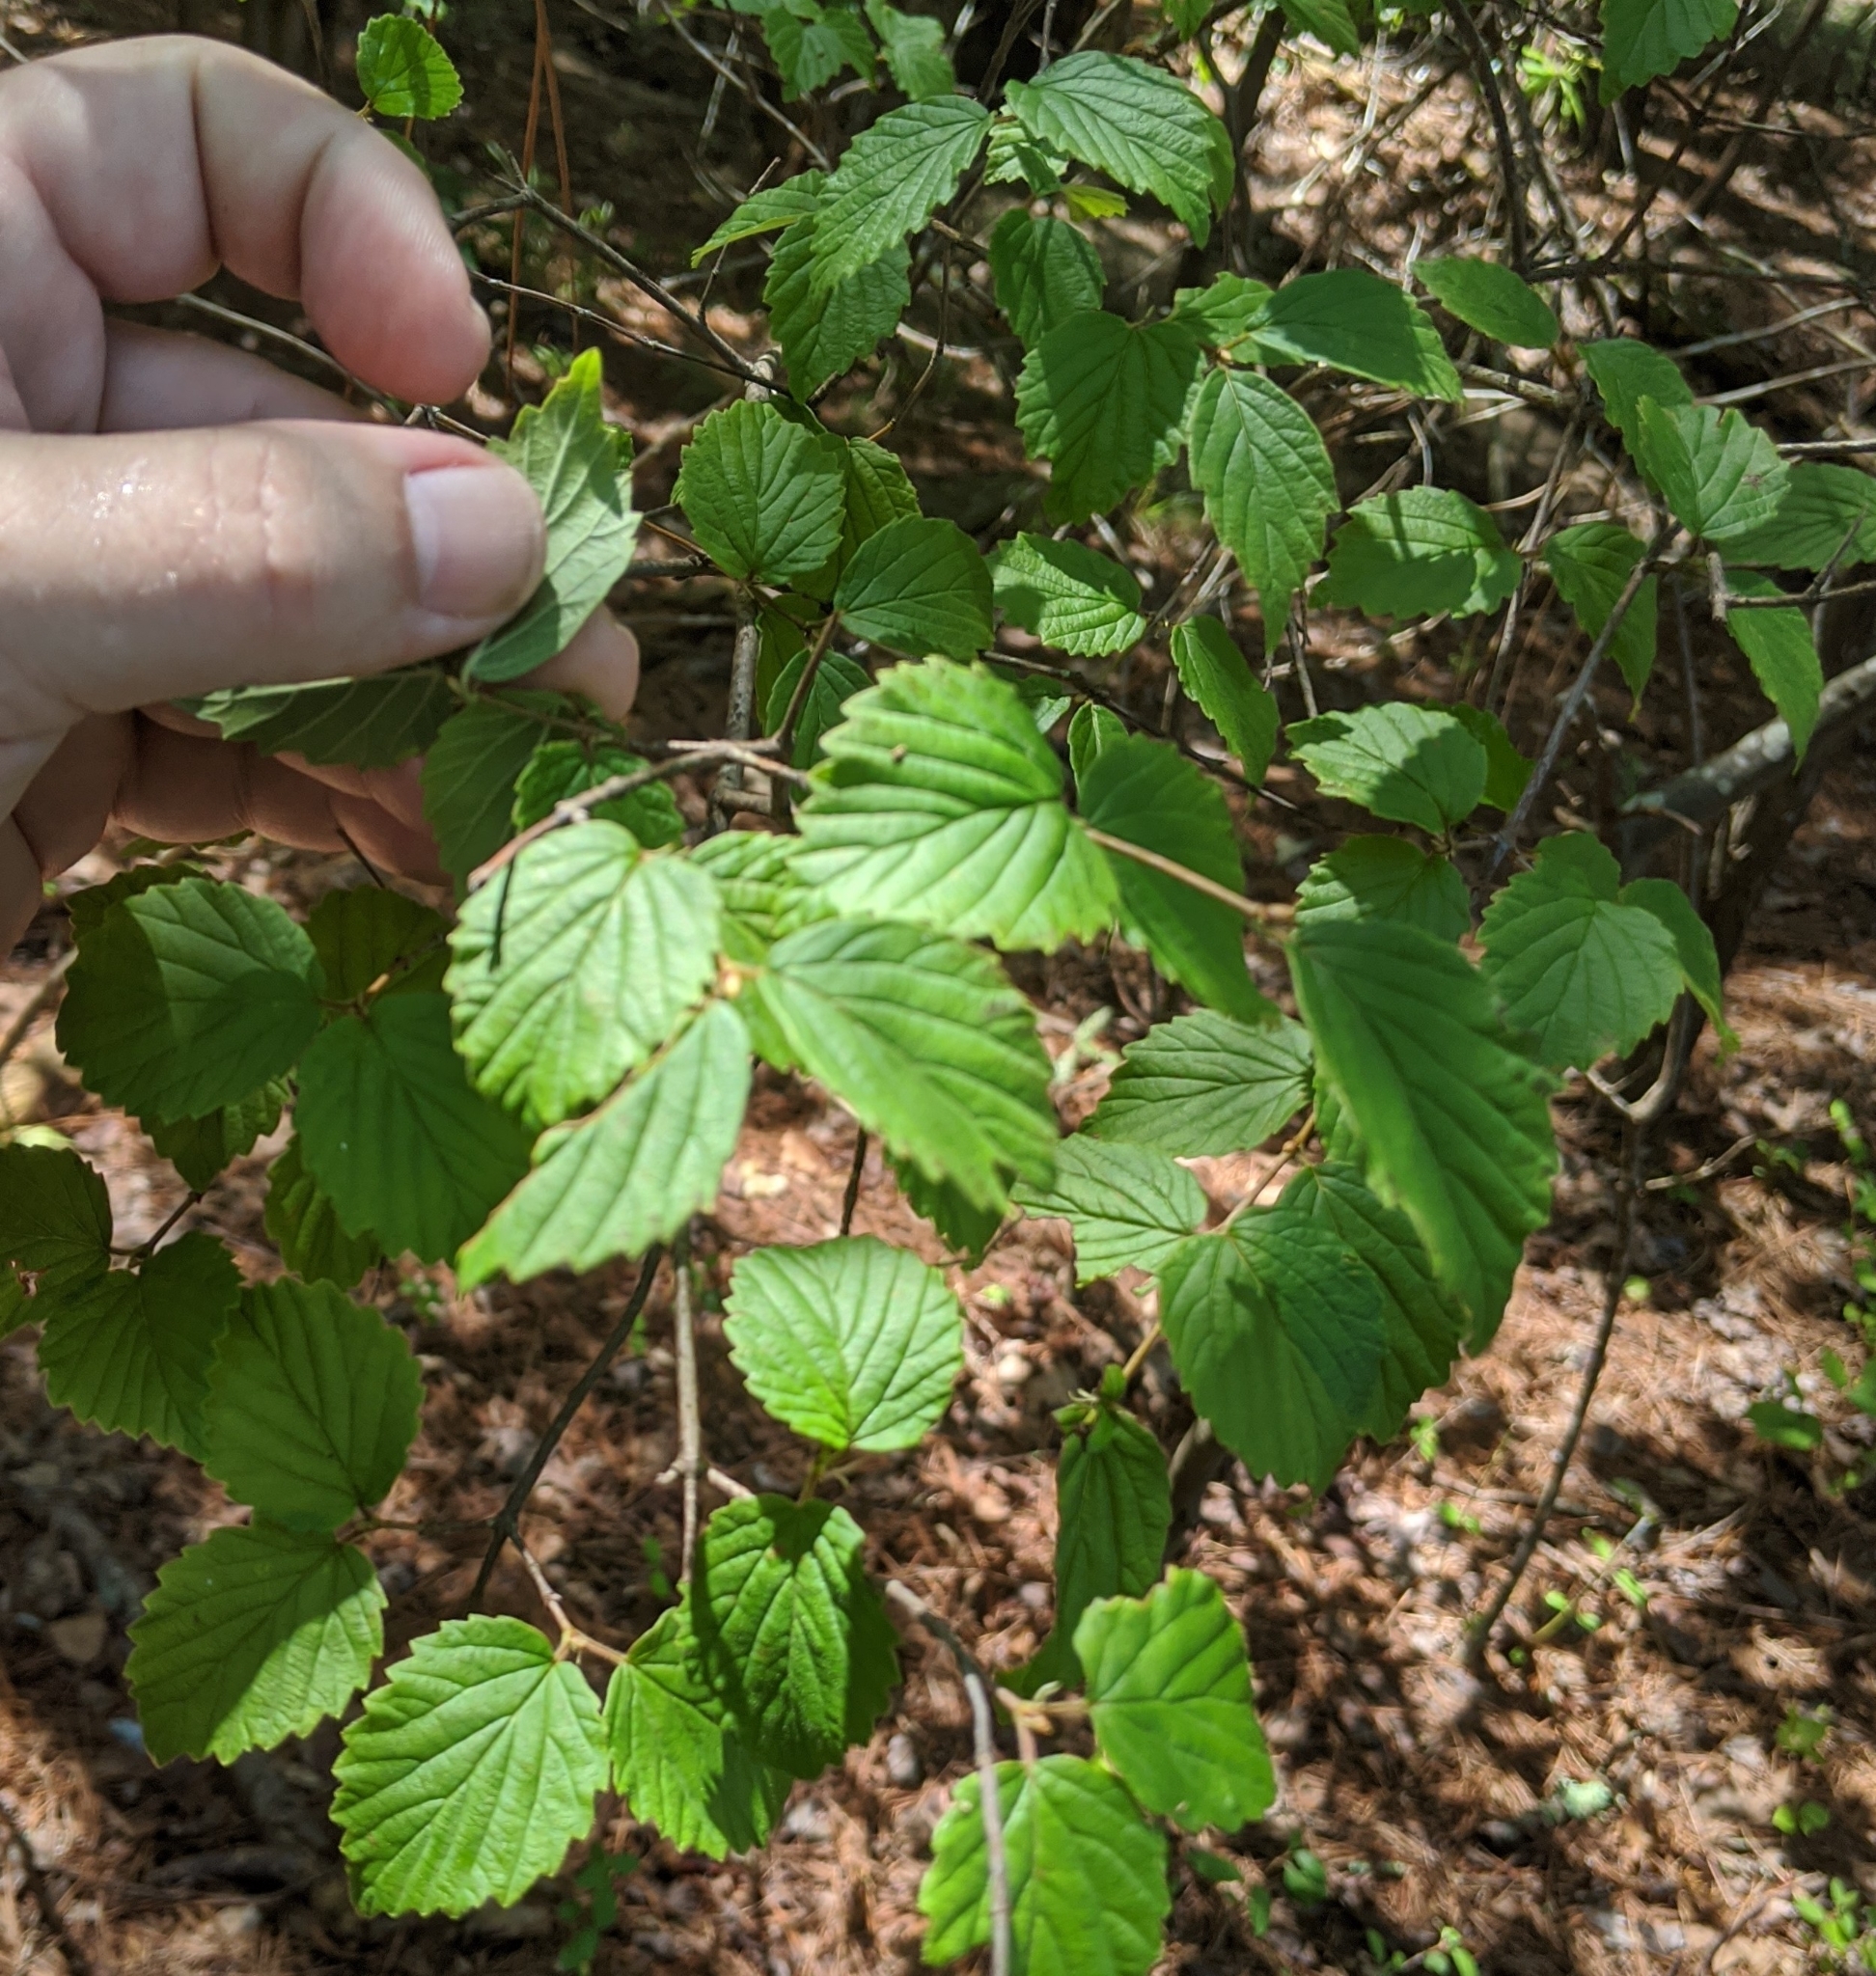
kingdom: Plantae
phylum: Tracheophyta
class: Magnoliopsida
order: Dipsacales
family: Viburnaceae
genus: Viburnum
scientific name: Viburnum rafinesqueanum
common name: Downy arrow-wood
